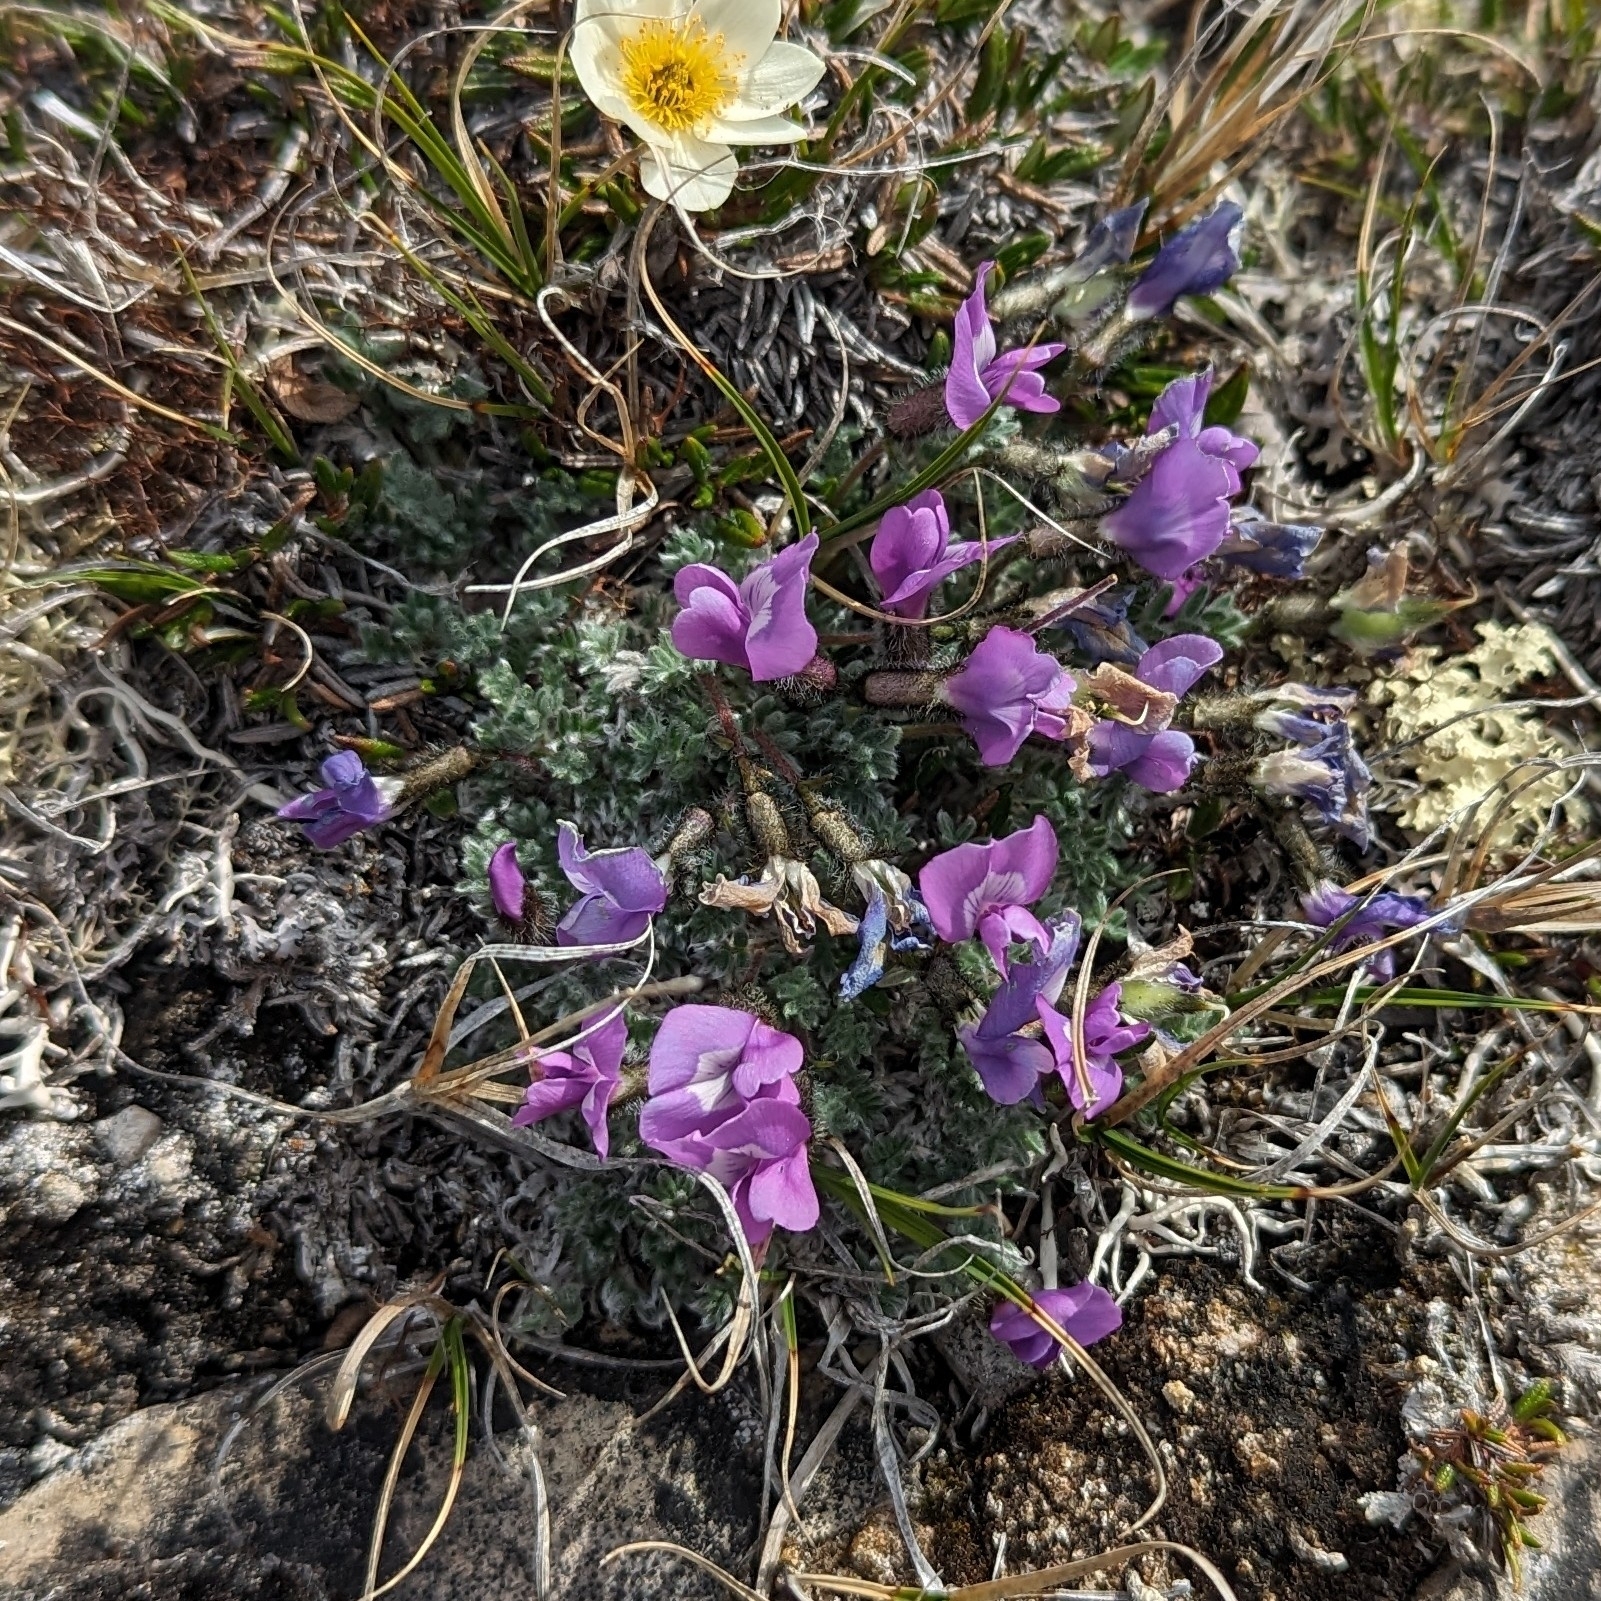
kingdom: Plantae
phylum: Tracheophyta
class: Magnoliopsida
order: Fabales
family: Fabaceae
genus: Oxytropis
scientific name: Oxytropis nigrescens
